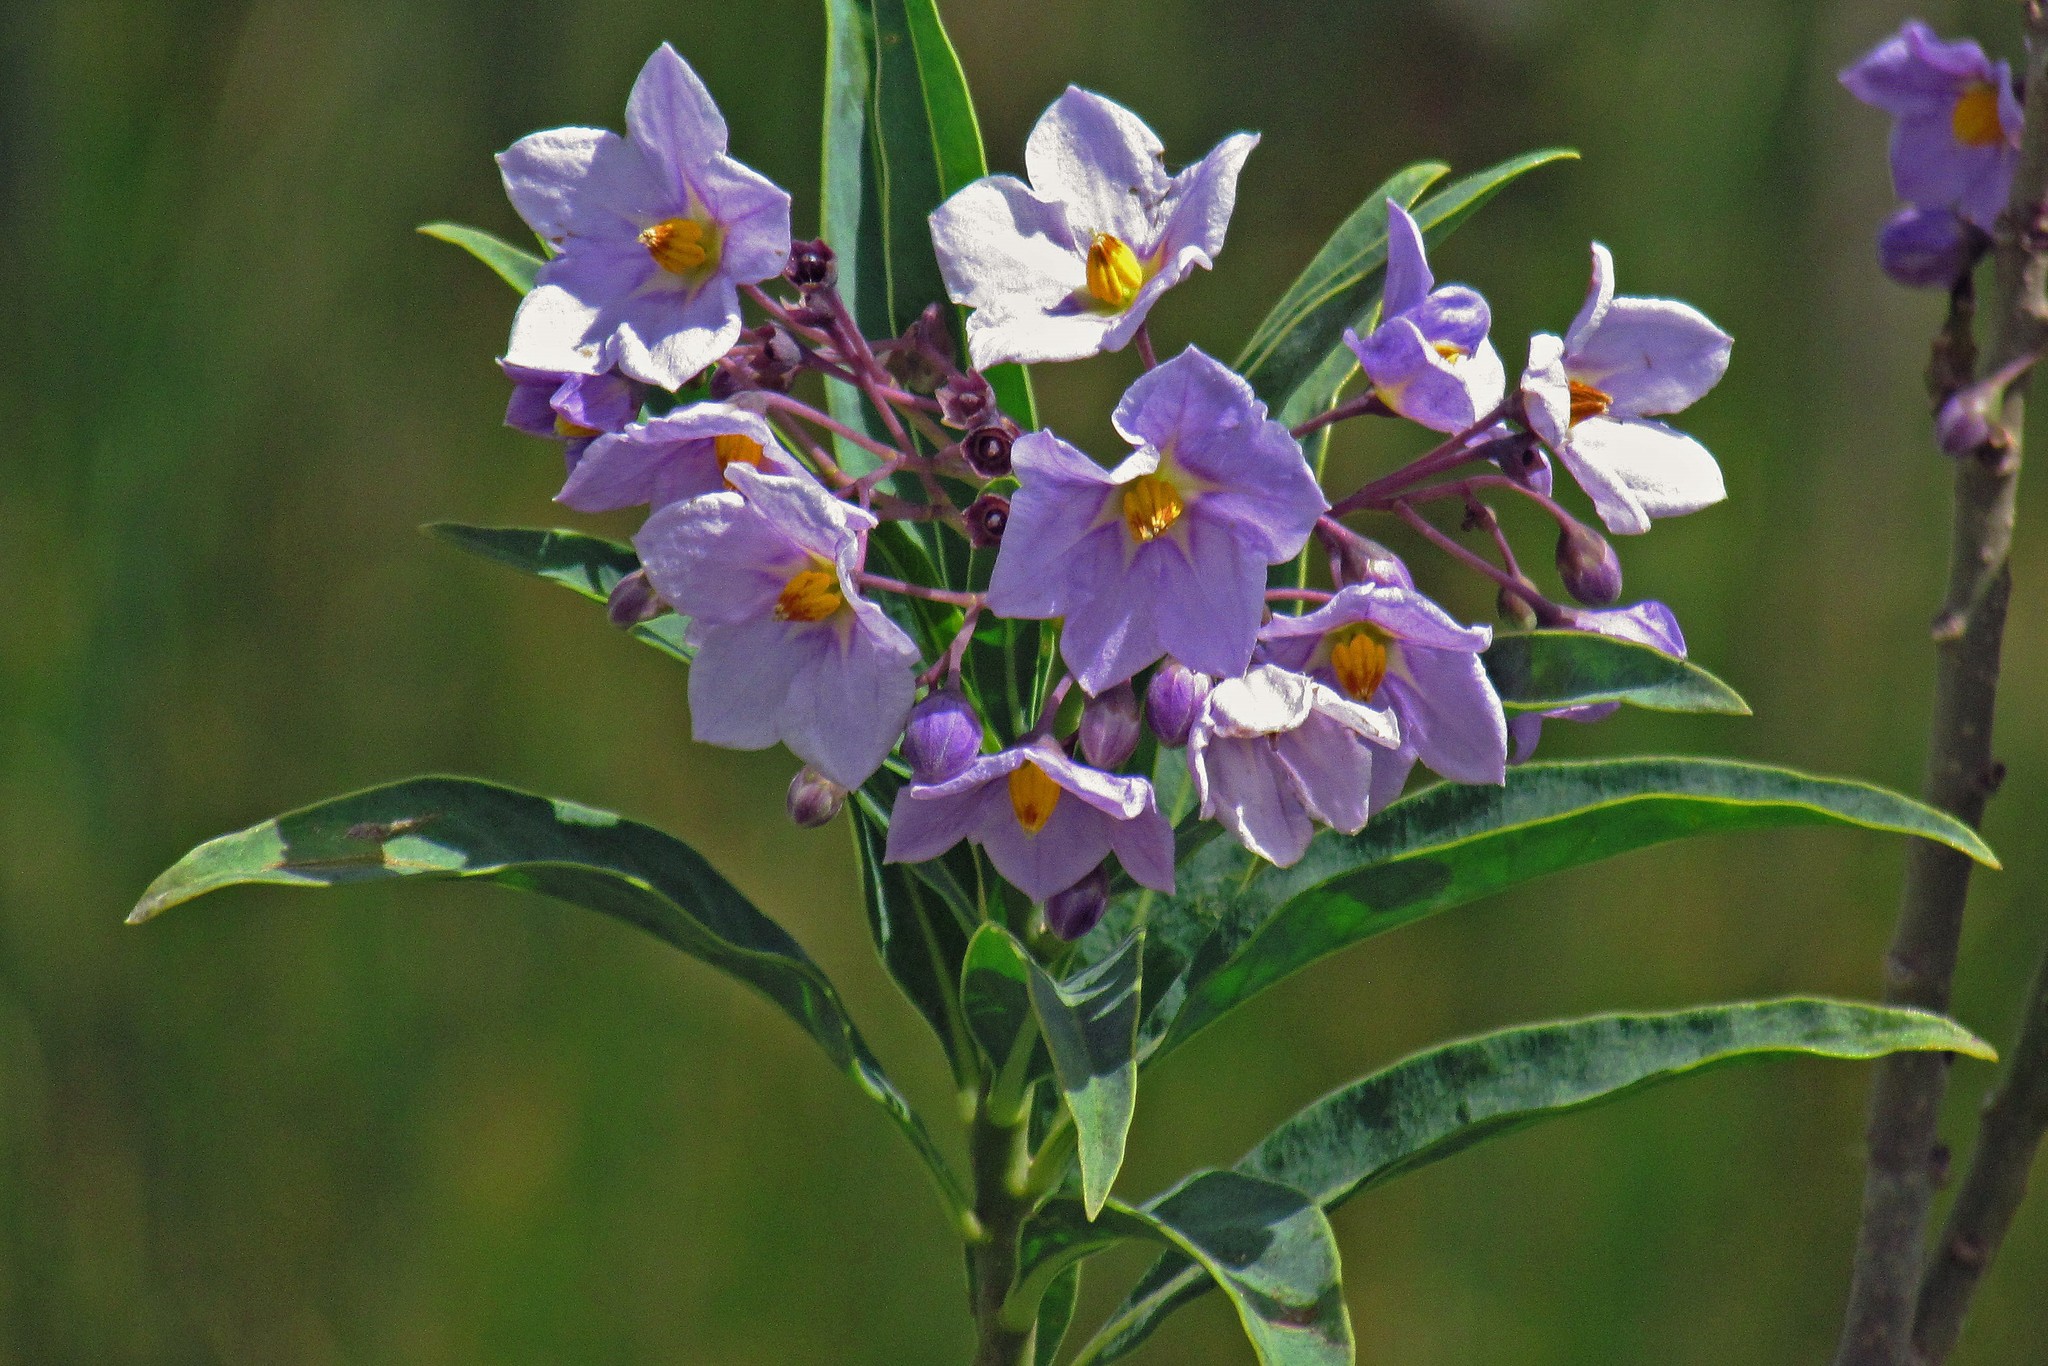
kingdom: Plantae
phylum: Tracheophyta
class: Magnoliopsida
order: Solanales
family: Solanaceae
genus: Solanum
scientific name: Solanum glaucophyllum
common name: Waxyleaf nightshade
